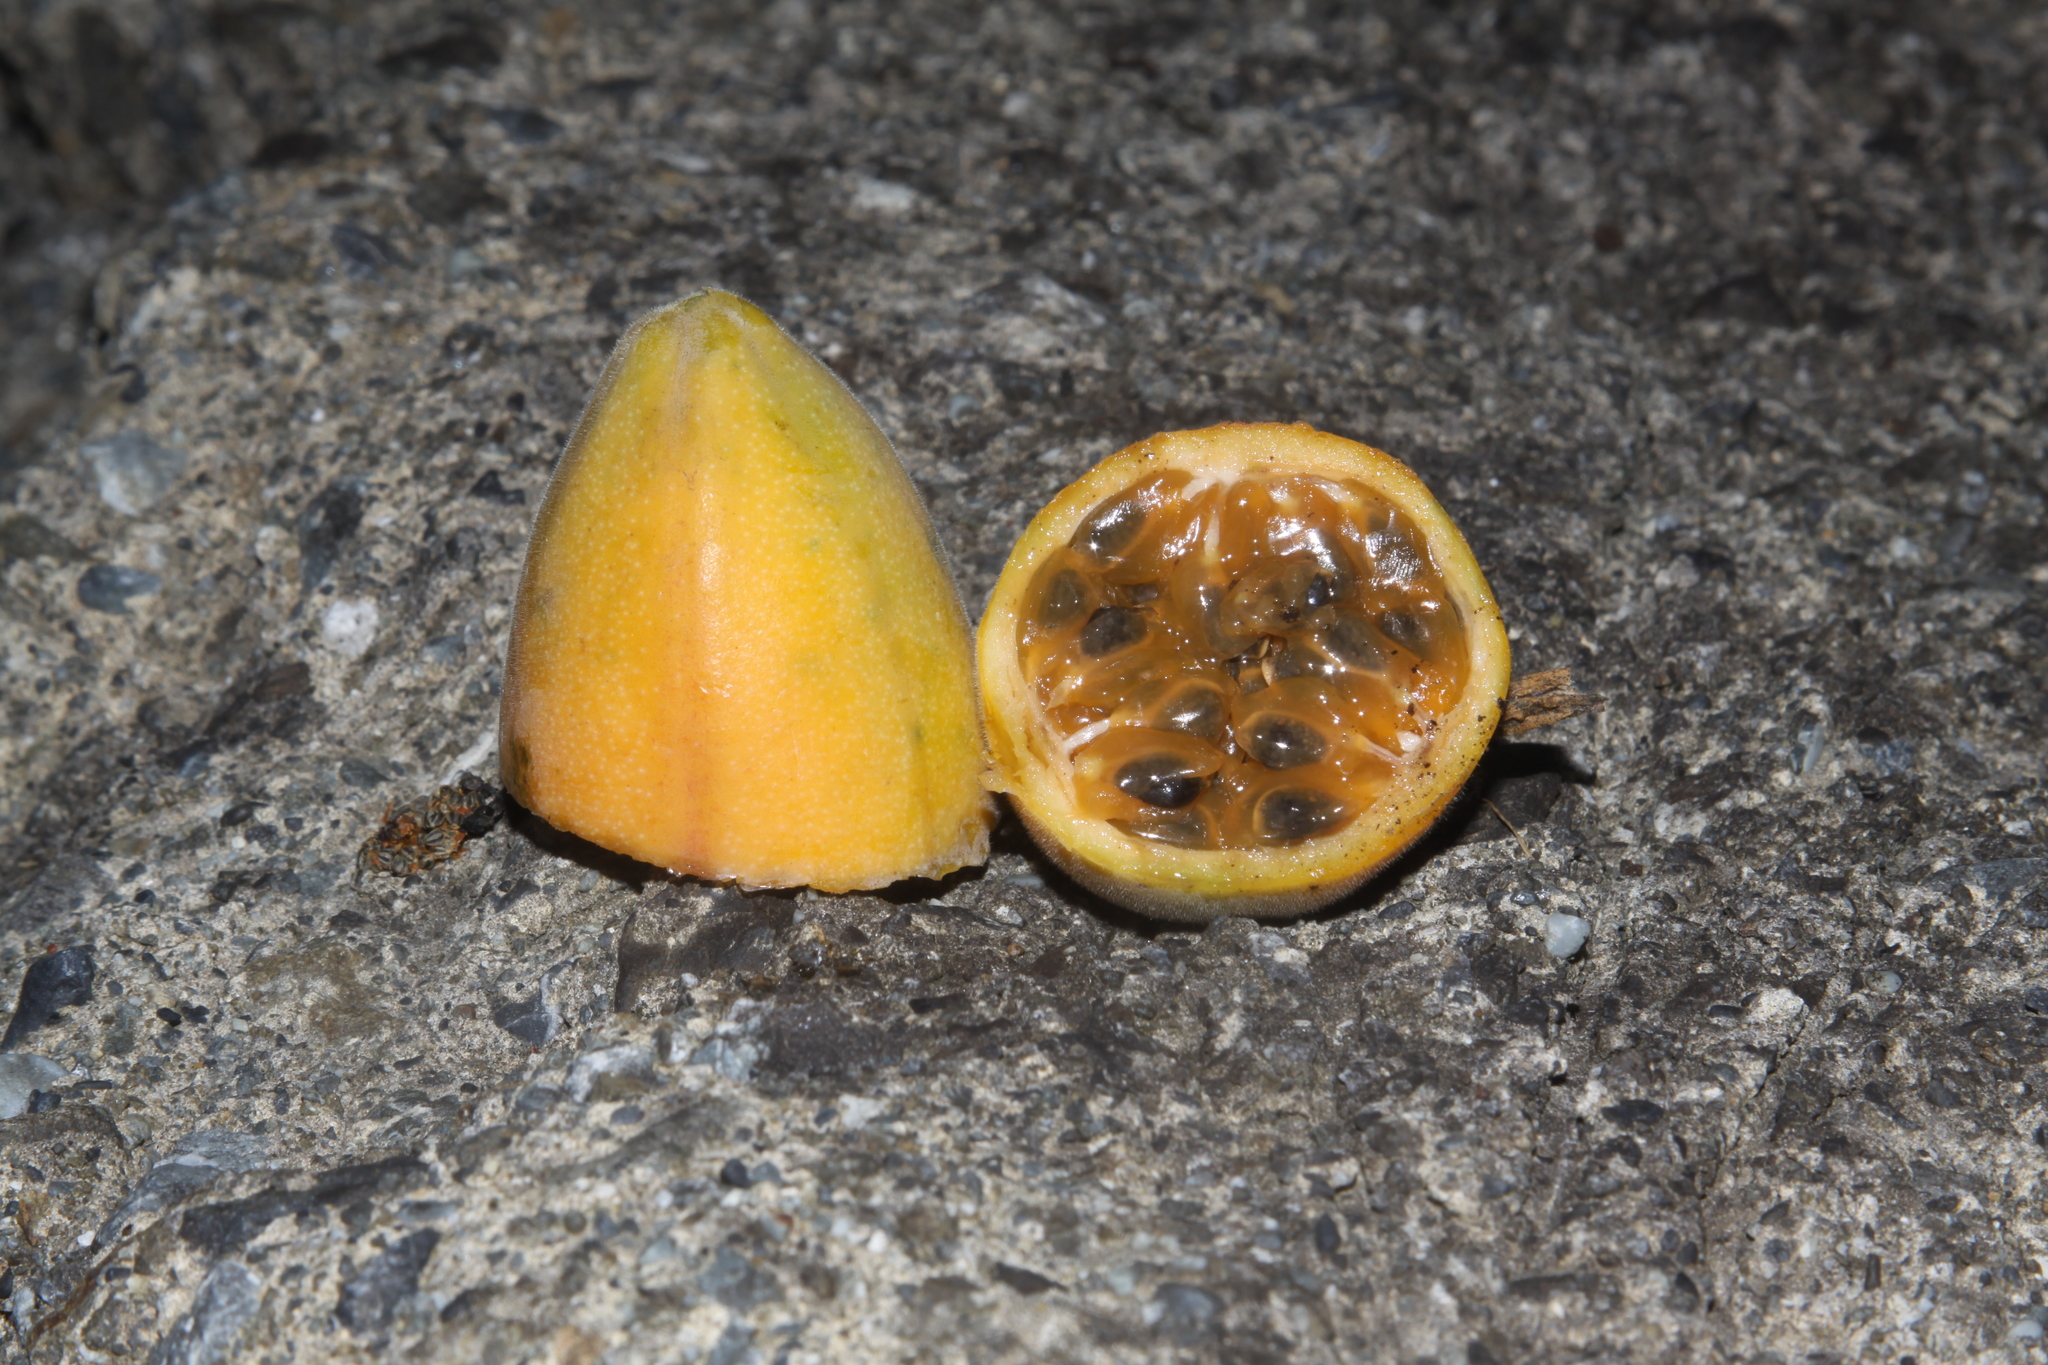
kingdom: Plantae
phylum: Tracheophyta
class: Magnoliopsida
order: Malpighiales
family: Passifloraceae
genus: Passiflora
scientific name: Passiflora tripartita
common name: Banana poka
